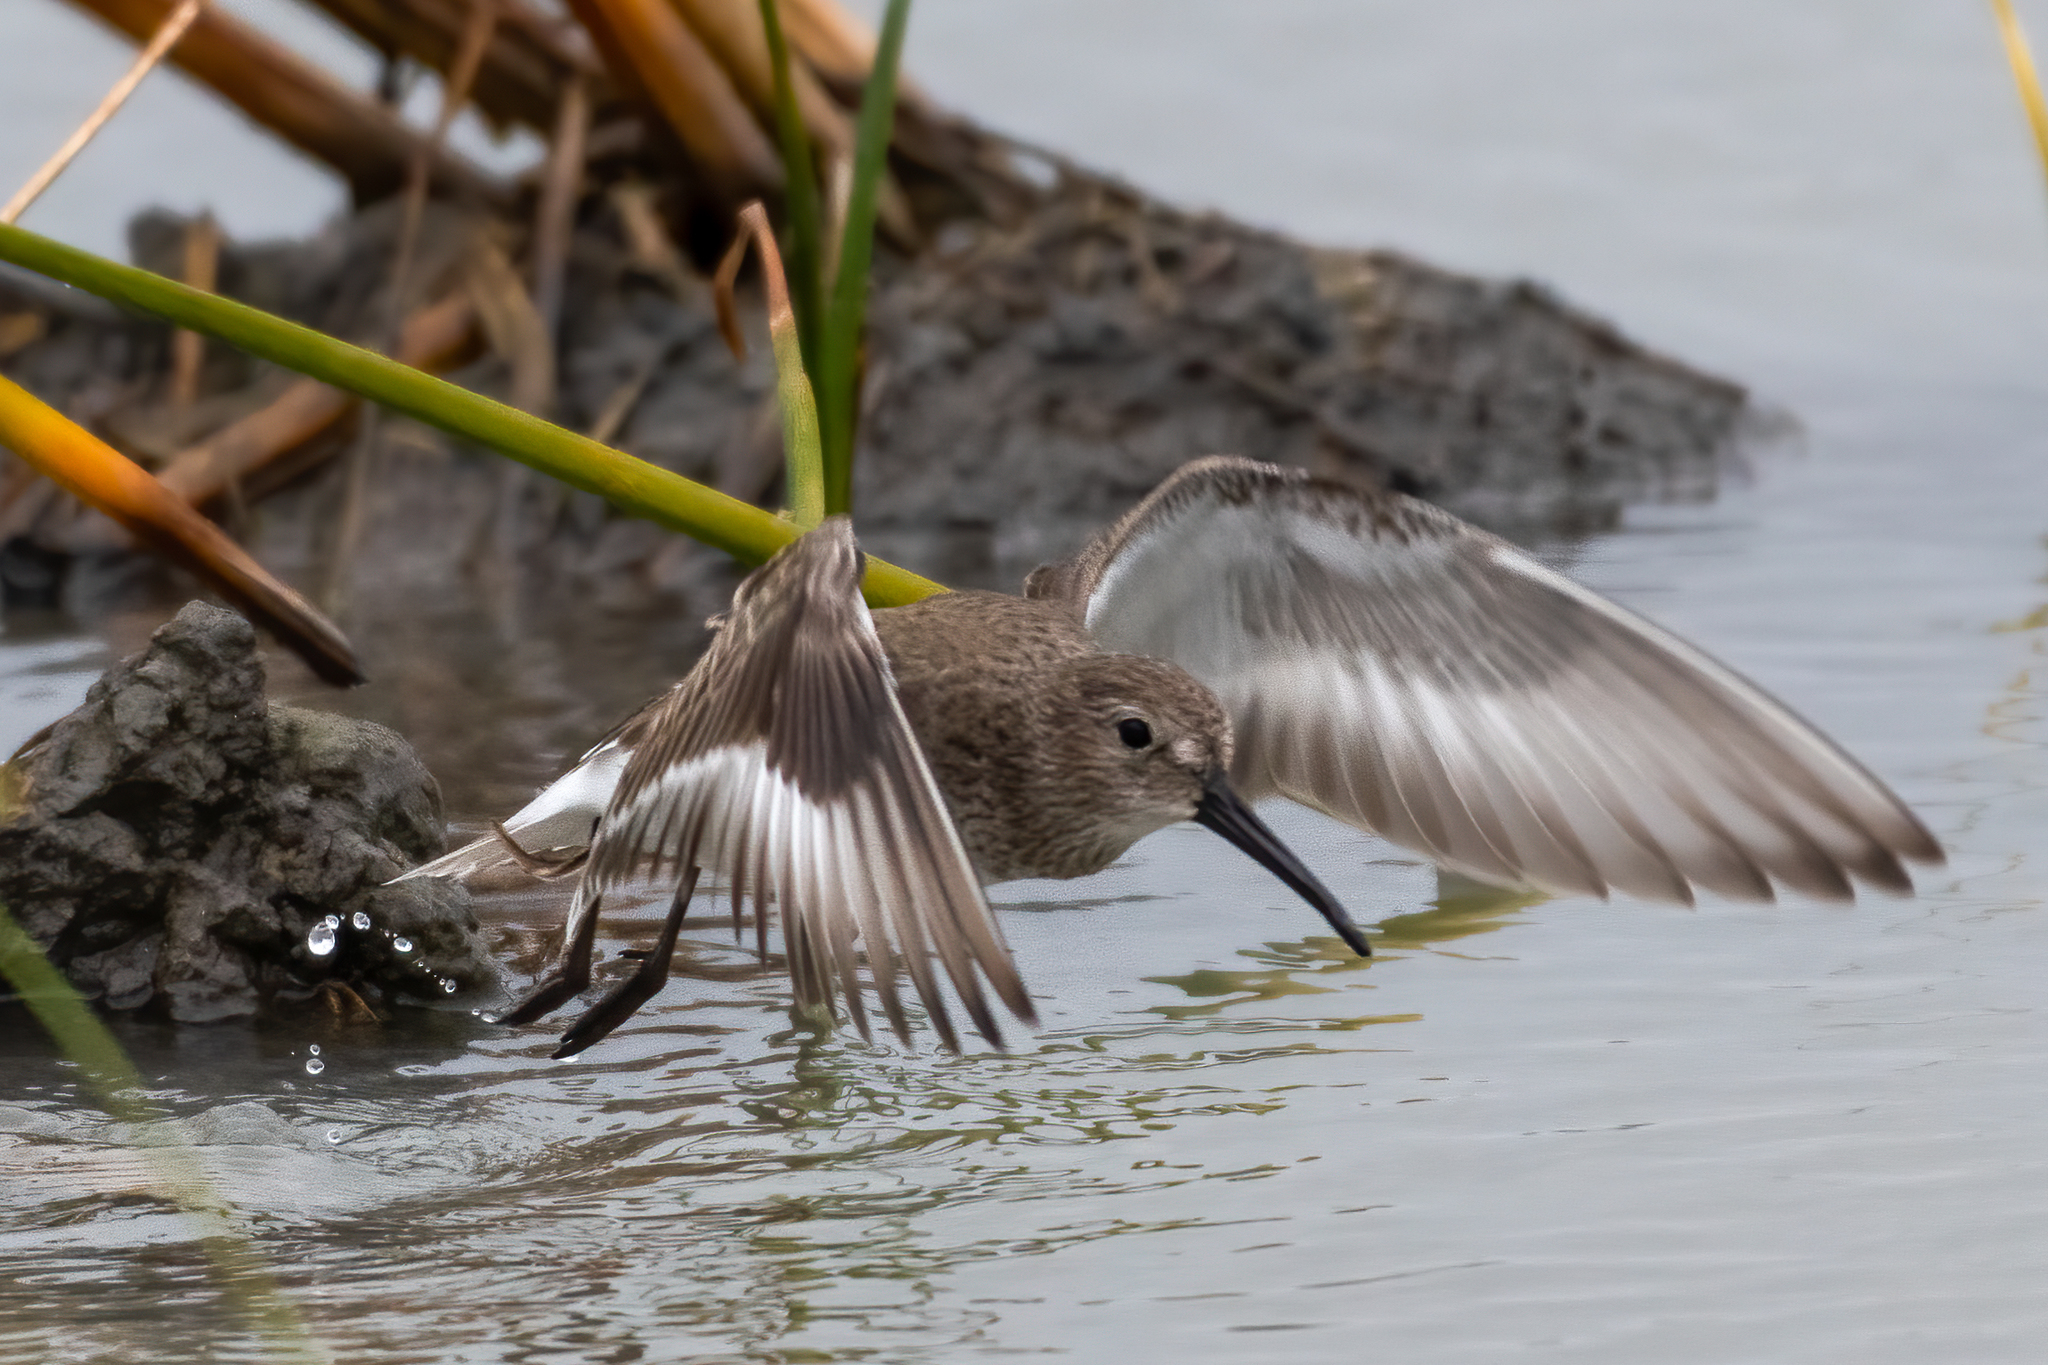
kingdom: Animalia
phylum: Chordata
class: Aves
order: Charadriiformes
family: Scolopacidae
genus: Calidris
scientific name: Calidris alpina
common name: Dunlin
